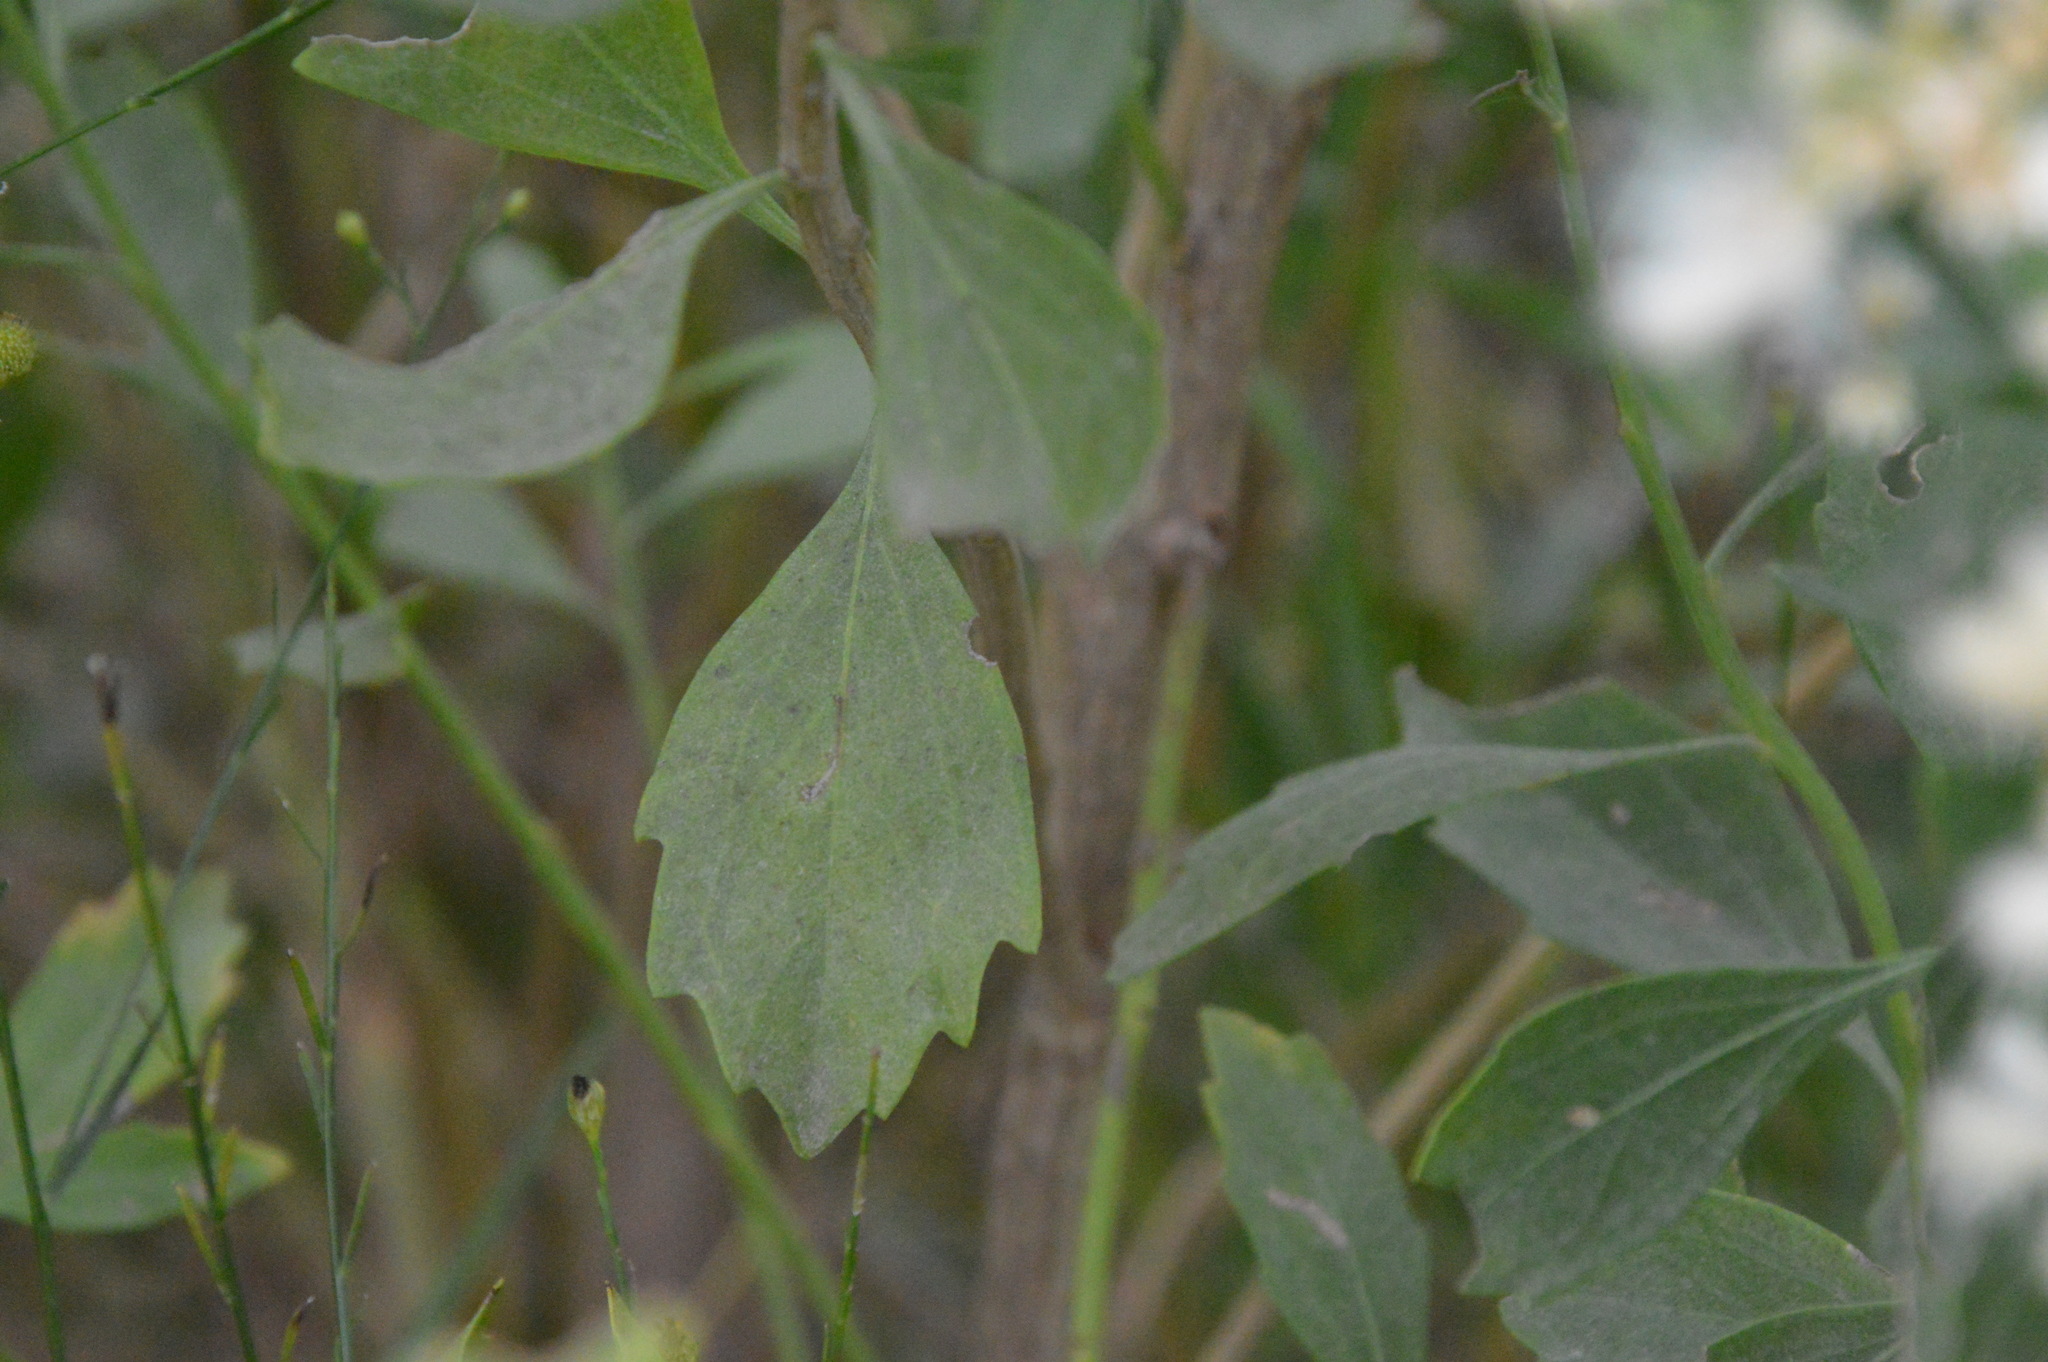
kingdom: Plantae
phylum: Tracheophyta
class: Magnoliopsida
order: Asterales
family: Asteraceae
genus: Baccharis
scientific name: Baccharis halimifolia
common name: Eastern baccharis
